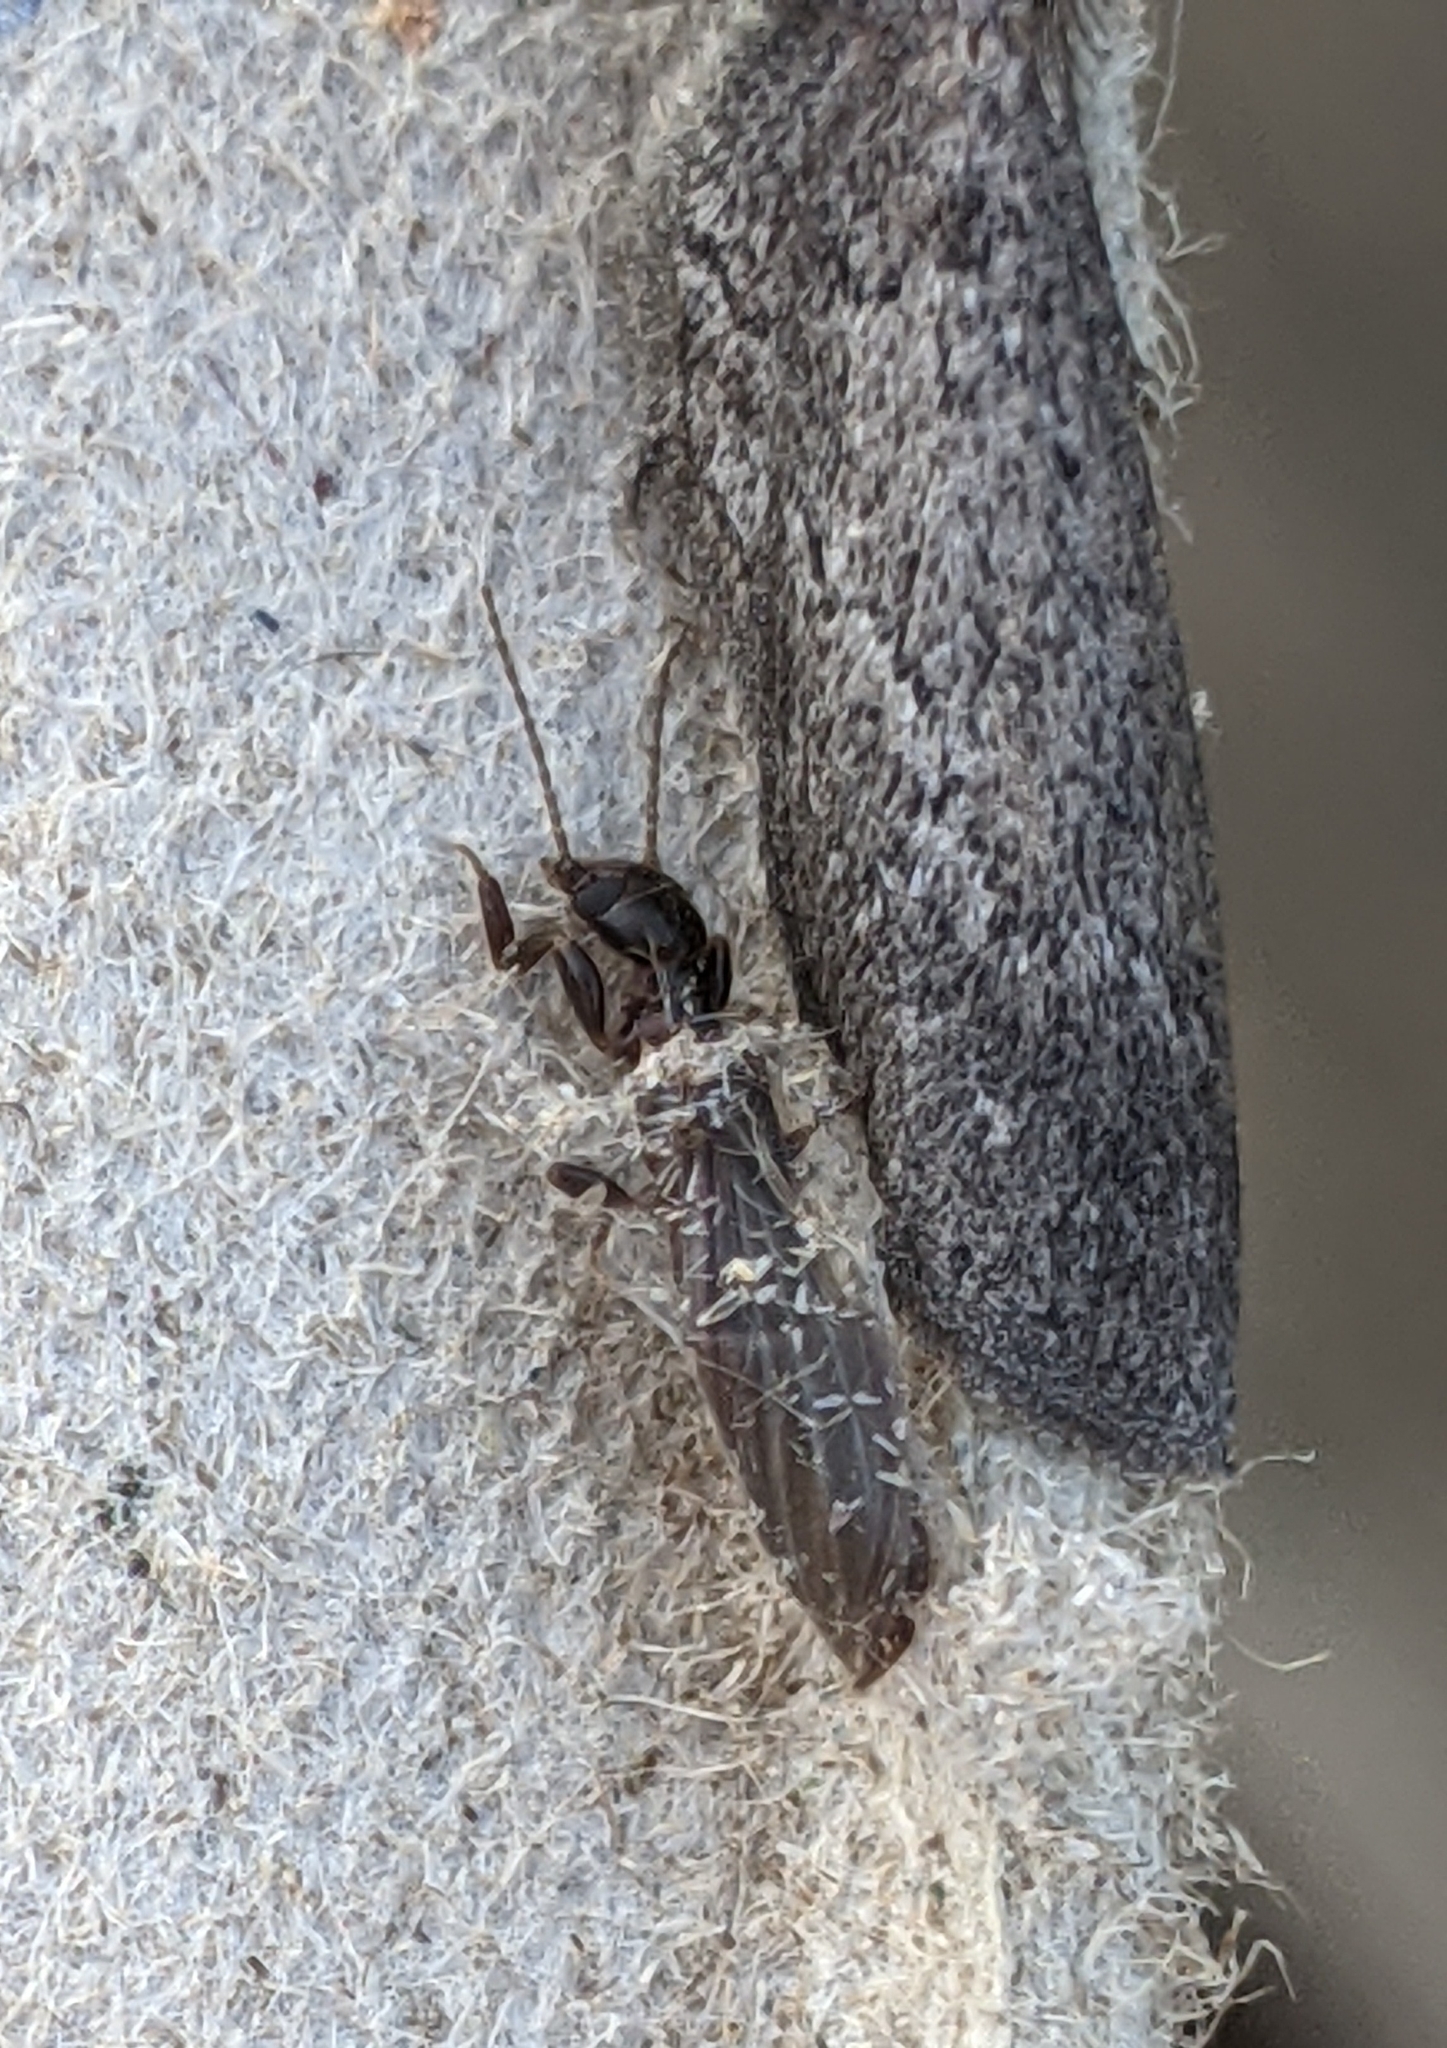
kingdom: Animalia
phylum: Arthropoda
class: Insecta
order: Embioptera
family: Oligotomidae
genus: Oligotoma
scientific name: Oligotoma nigra
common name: Black webspinner
